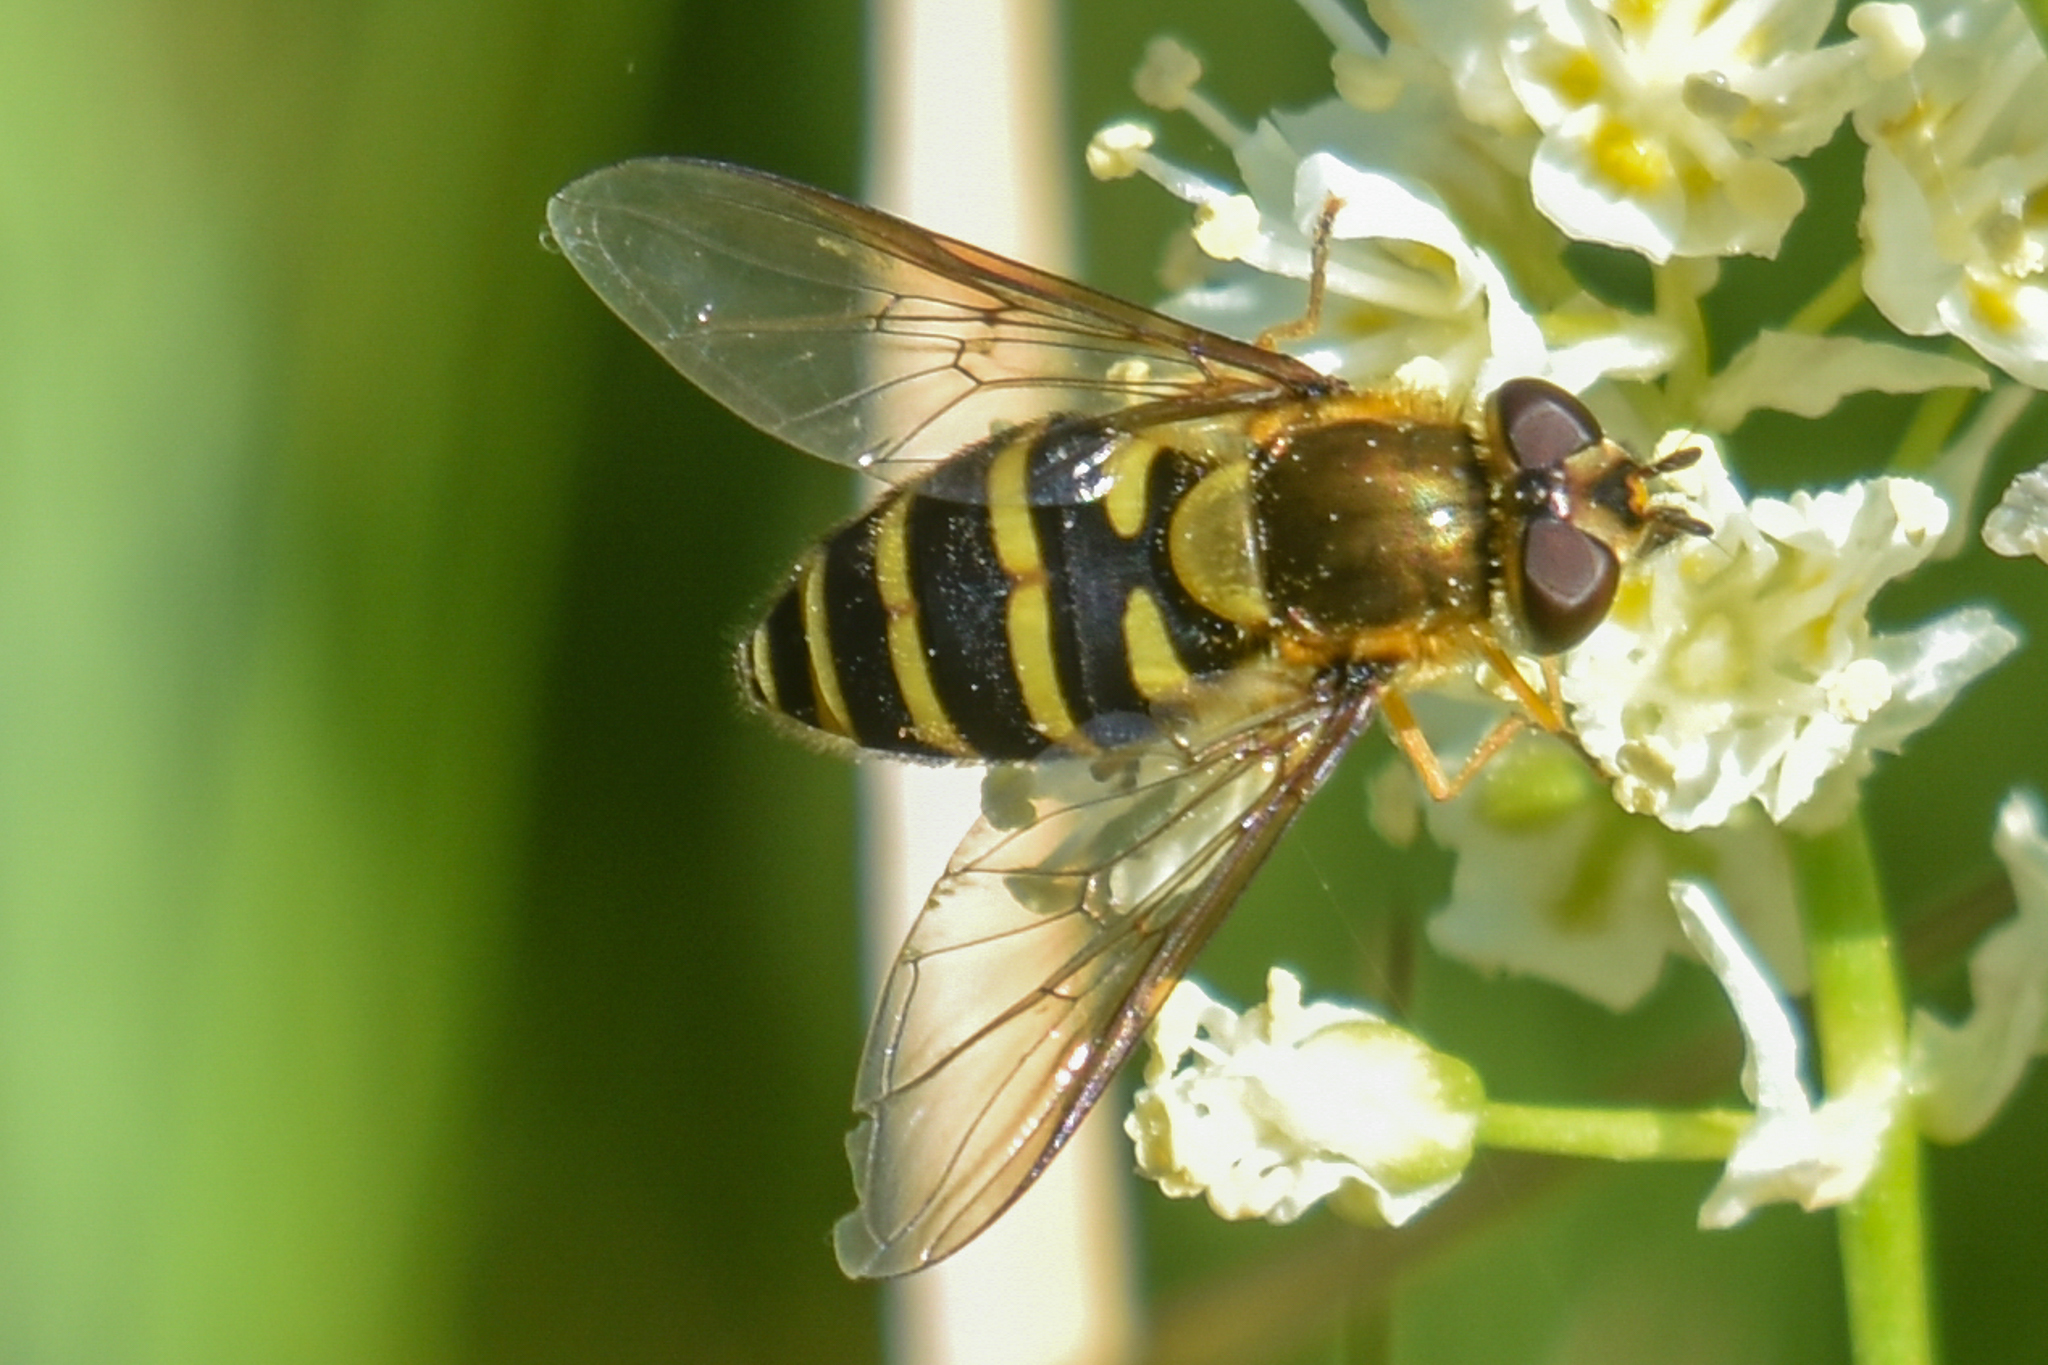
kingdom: Animalia
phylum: Arthropoda
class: Insecta
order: Diptera
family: Syrphidae
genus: Syrphus
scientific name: Syrphus
